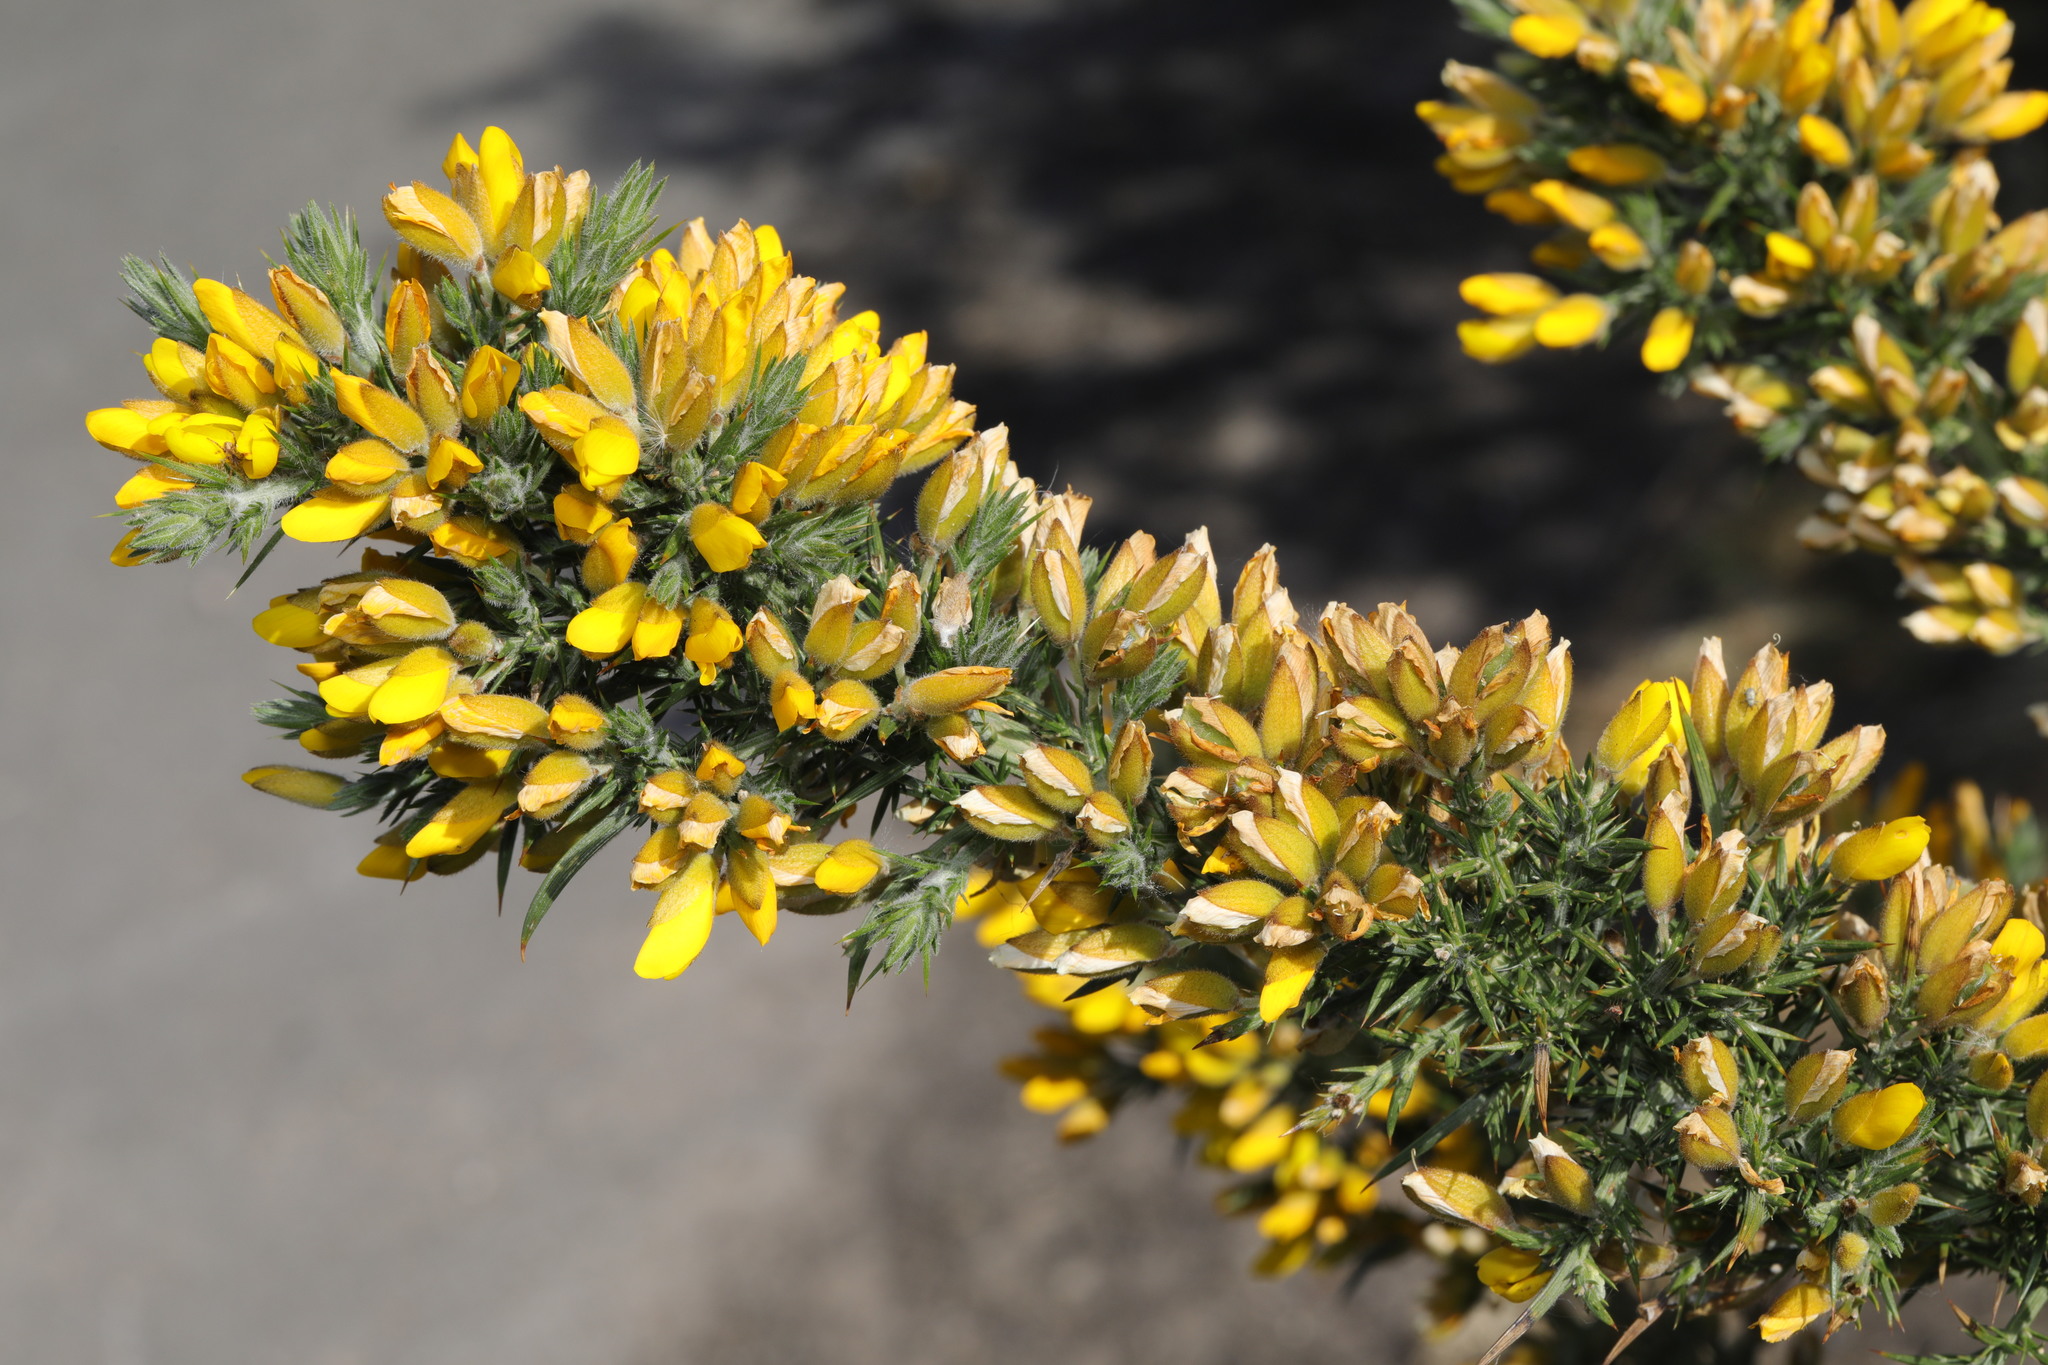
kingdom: Plantae
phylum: Tracheophyta
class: Magnoliopsida
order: Fabales
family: Fabaceae
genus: Ulex
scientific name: Ulex europaeus
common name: Common gorse
